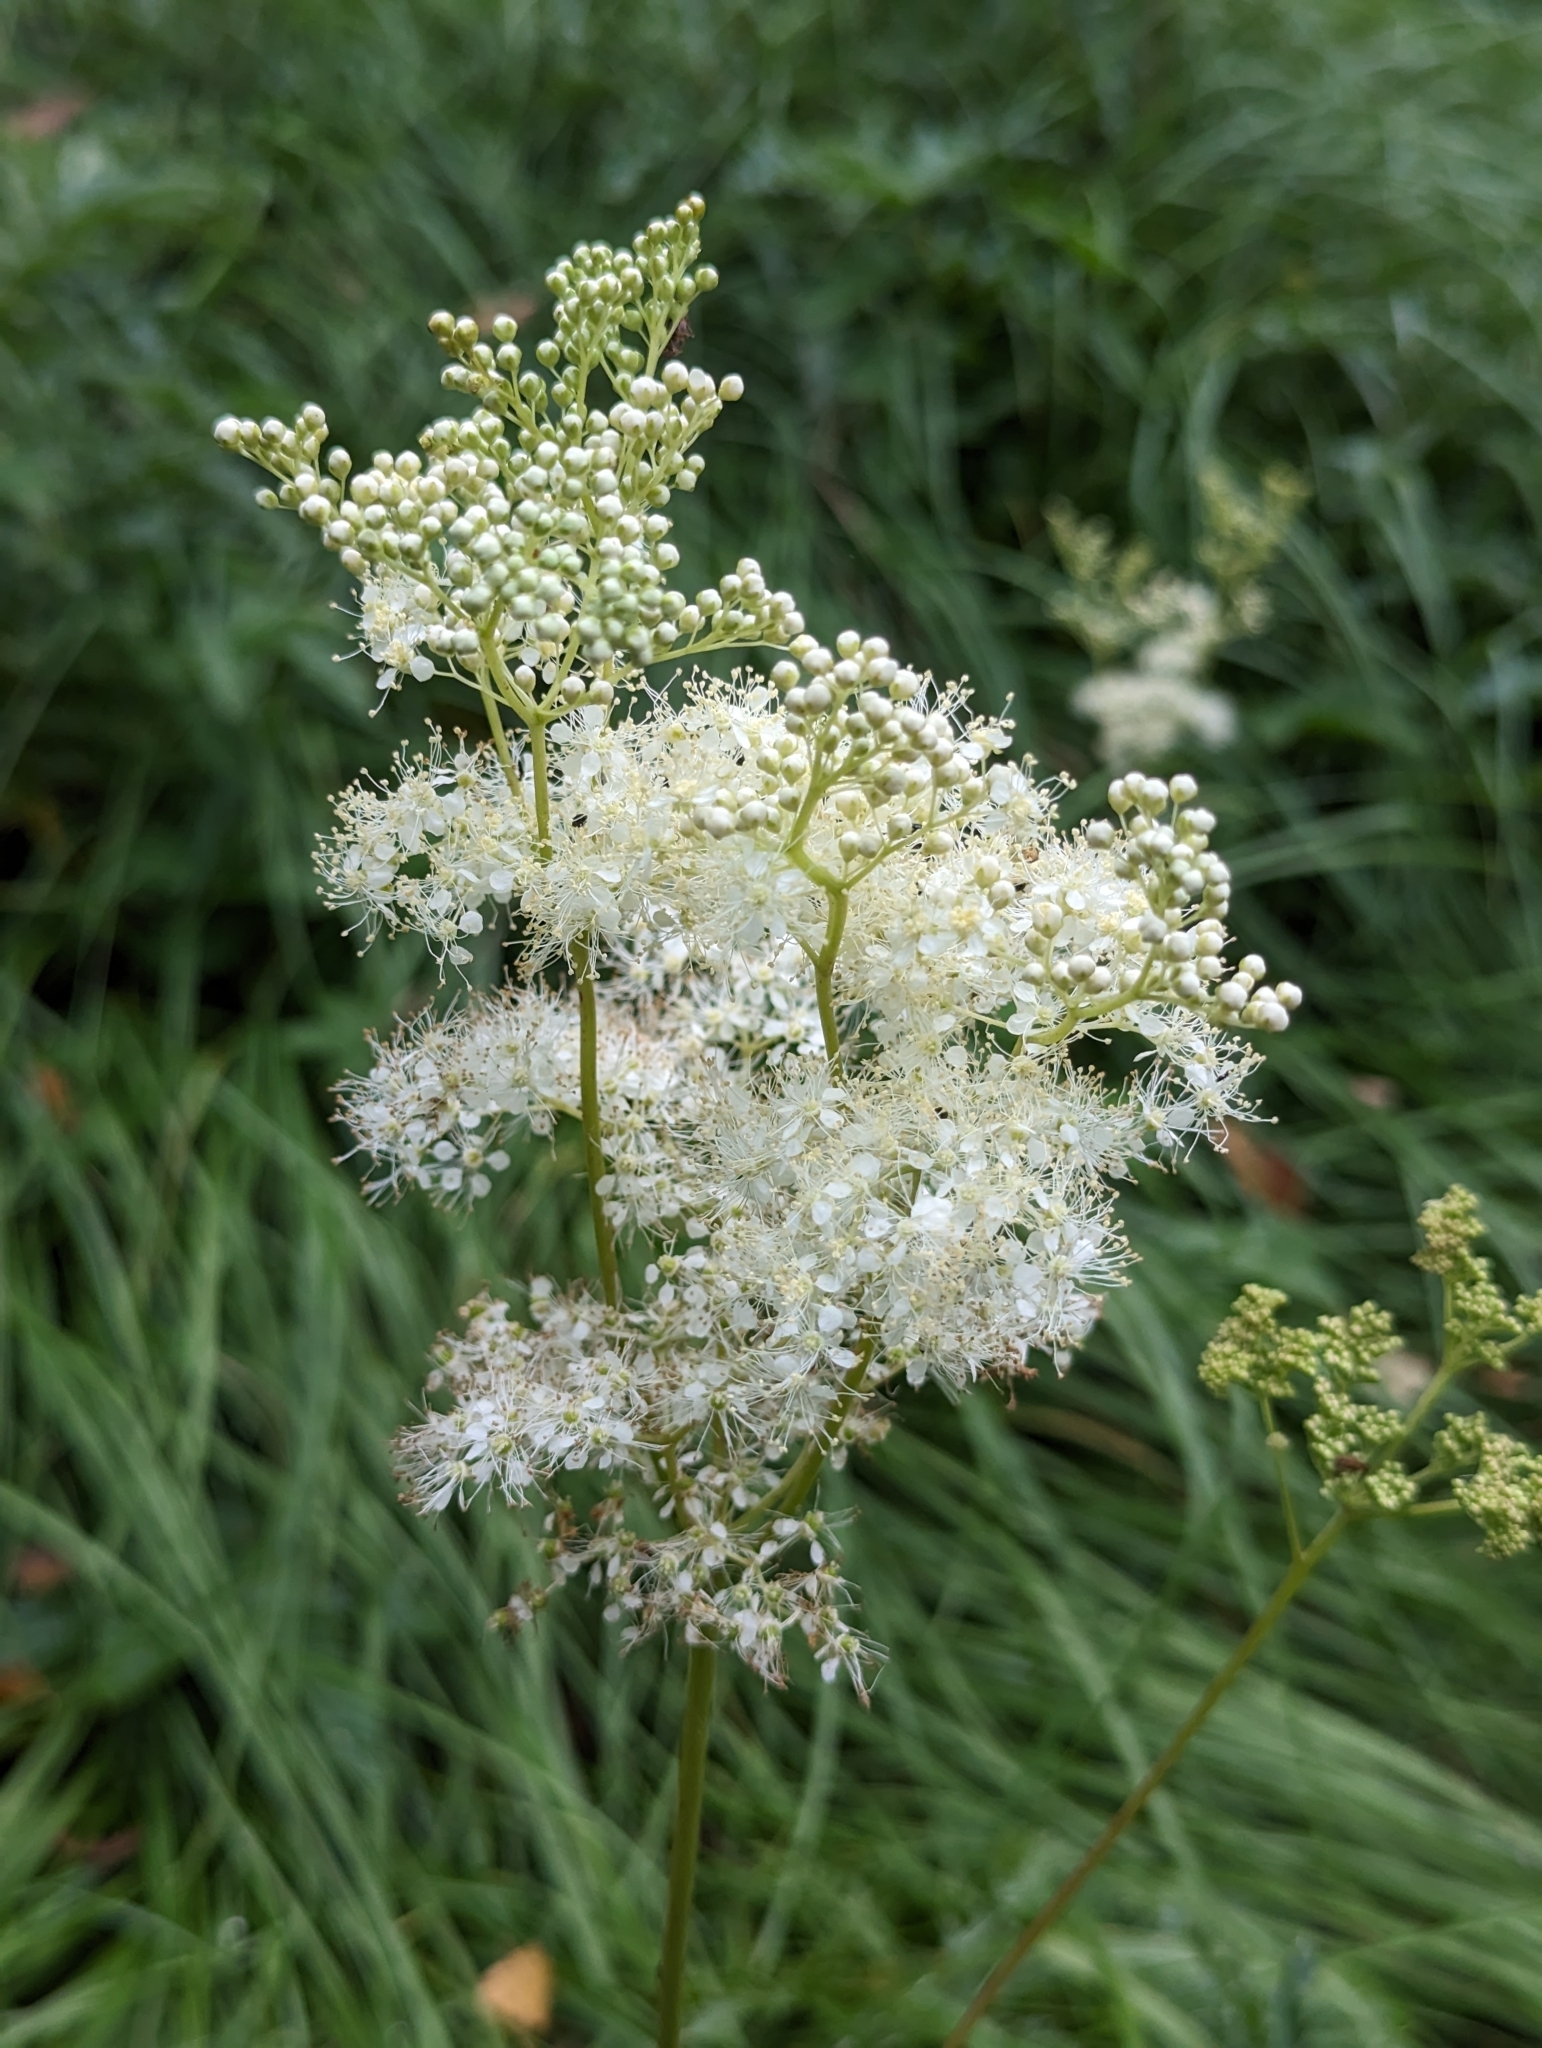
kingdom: Plantae
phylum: Tracheophyta
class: Magnoliopsida
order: Rosales
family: Rosaceae
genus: Filipendula
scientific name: Filipendula ulmaria
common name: Meadowsweet
